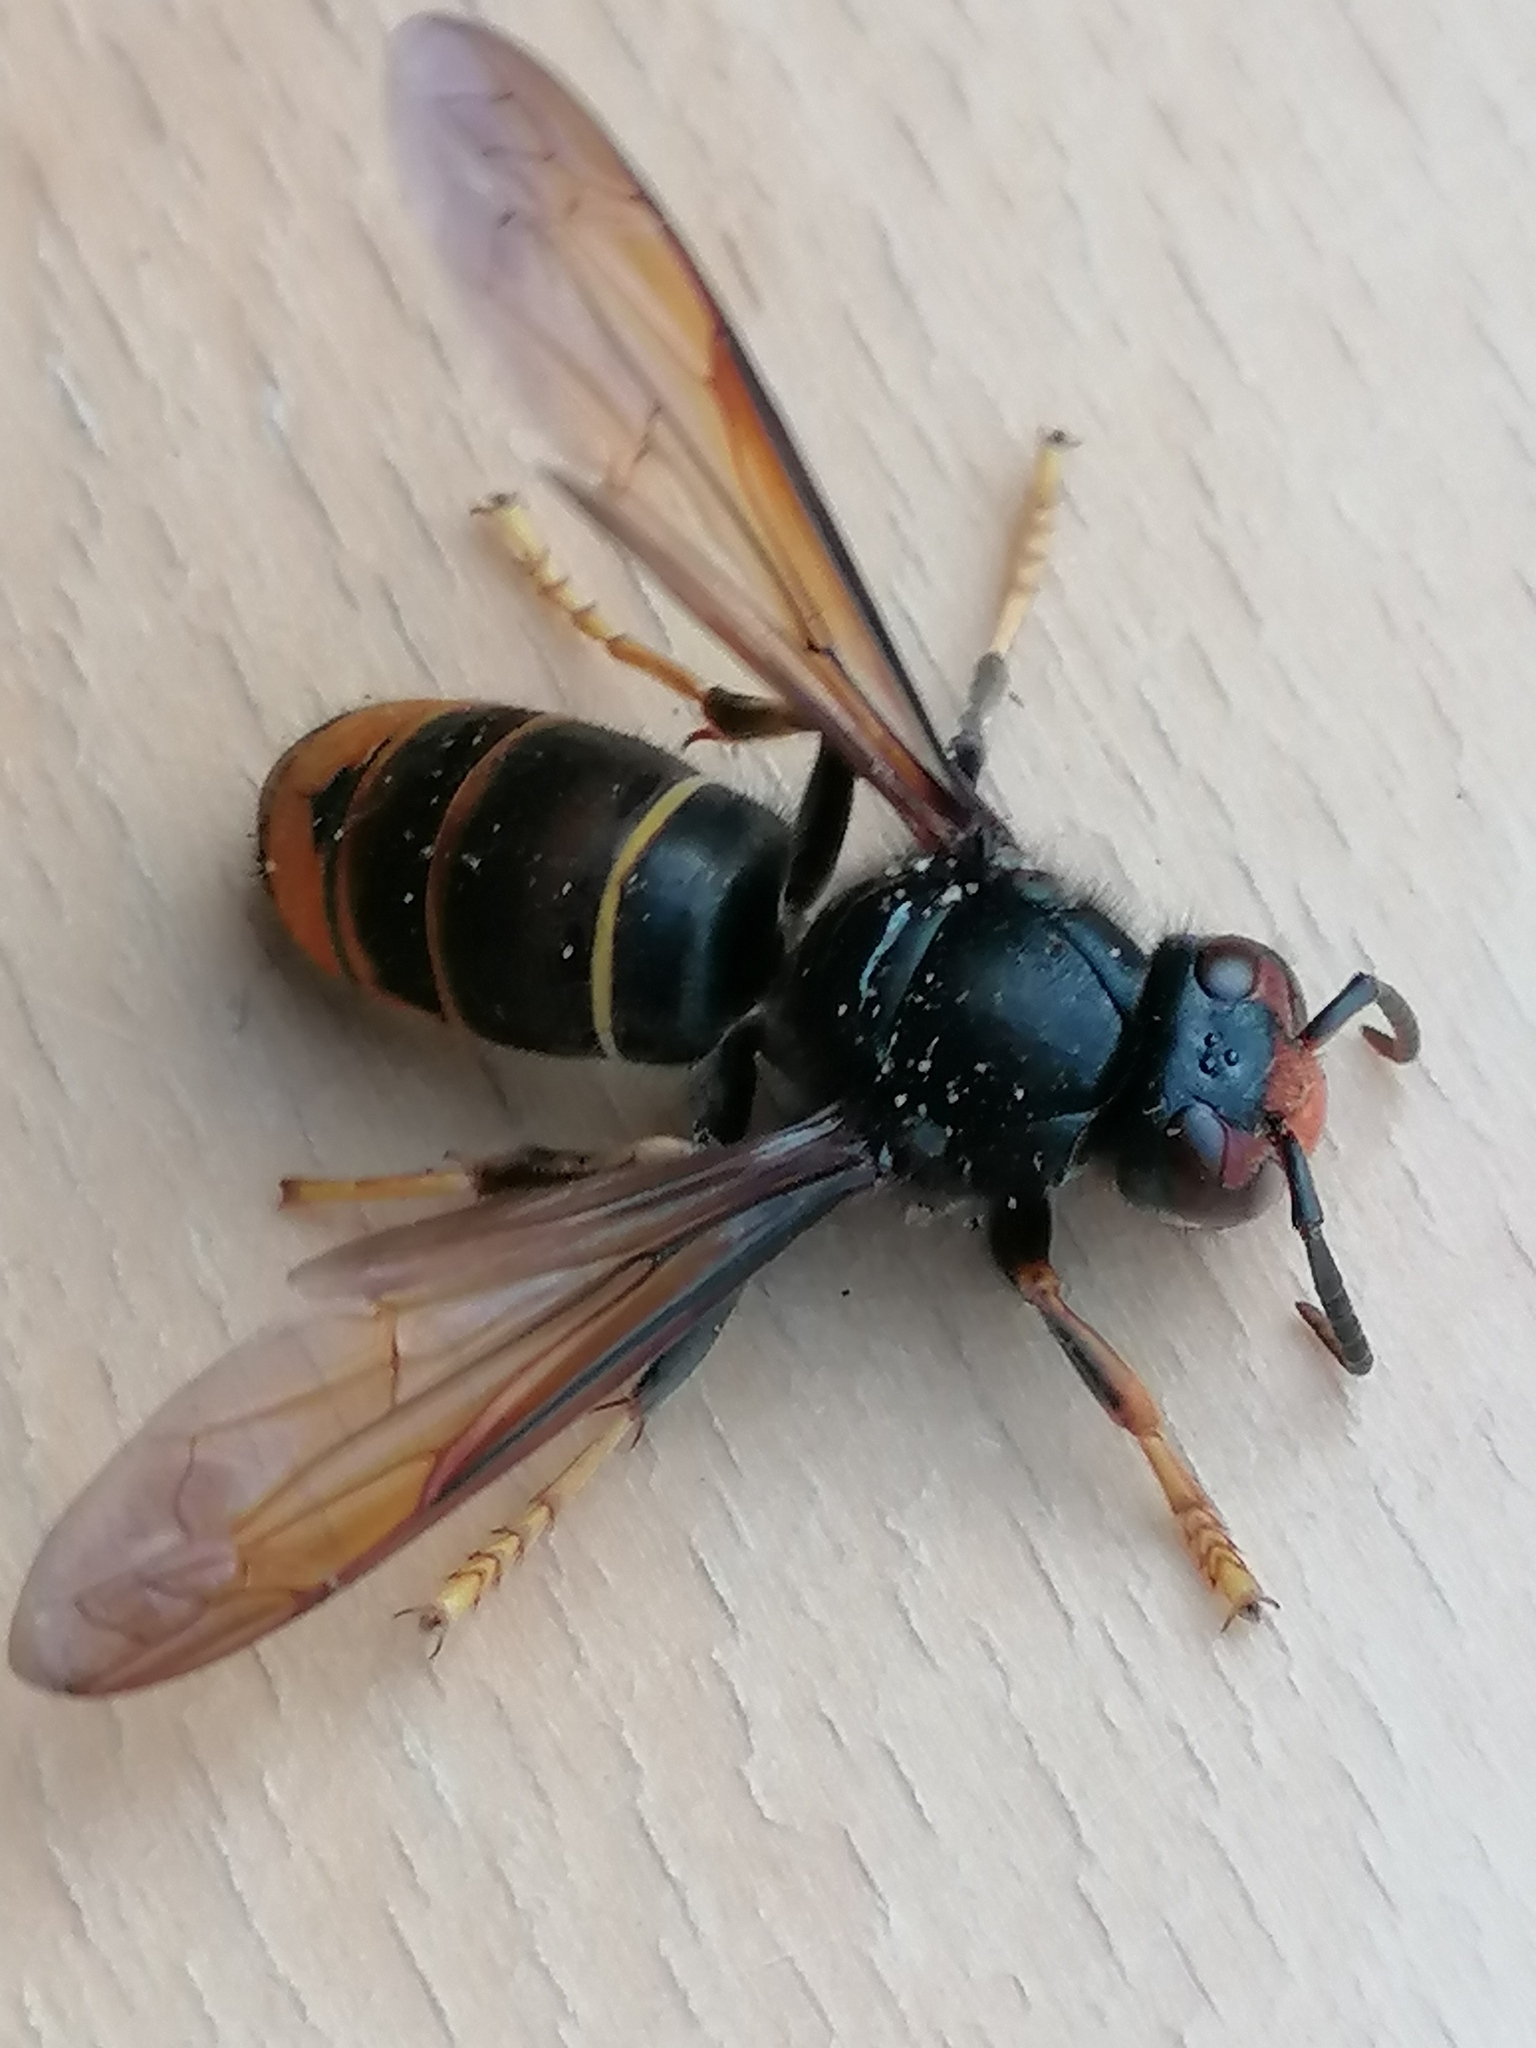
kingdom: Animalia
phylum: Arthropoda
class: Insecta
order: Hymenoptera
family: Vespidae
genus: Vespa
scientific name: Vespa velutina
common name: Asian hornet
